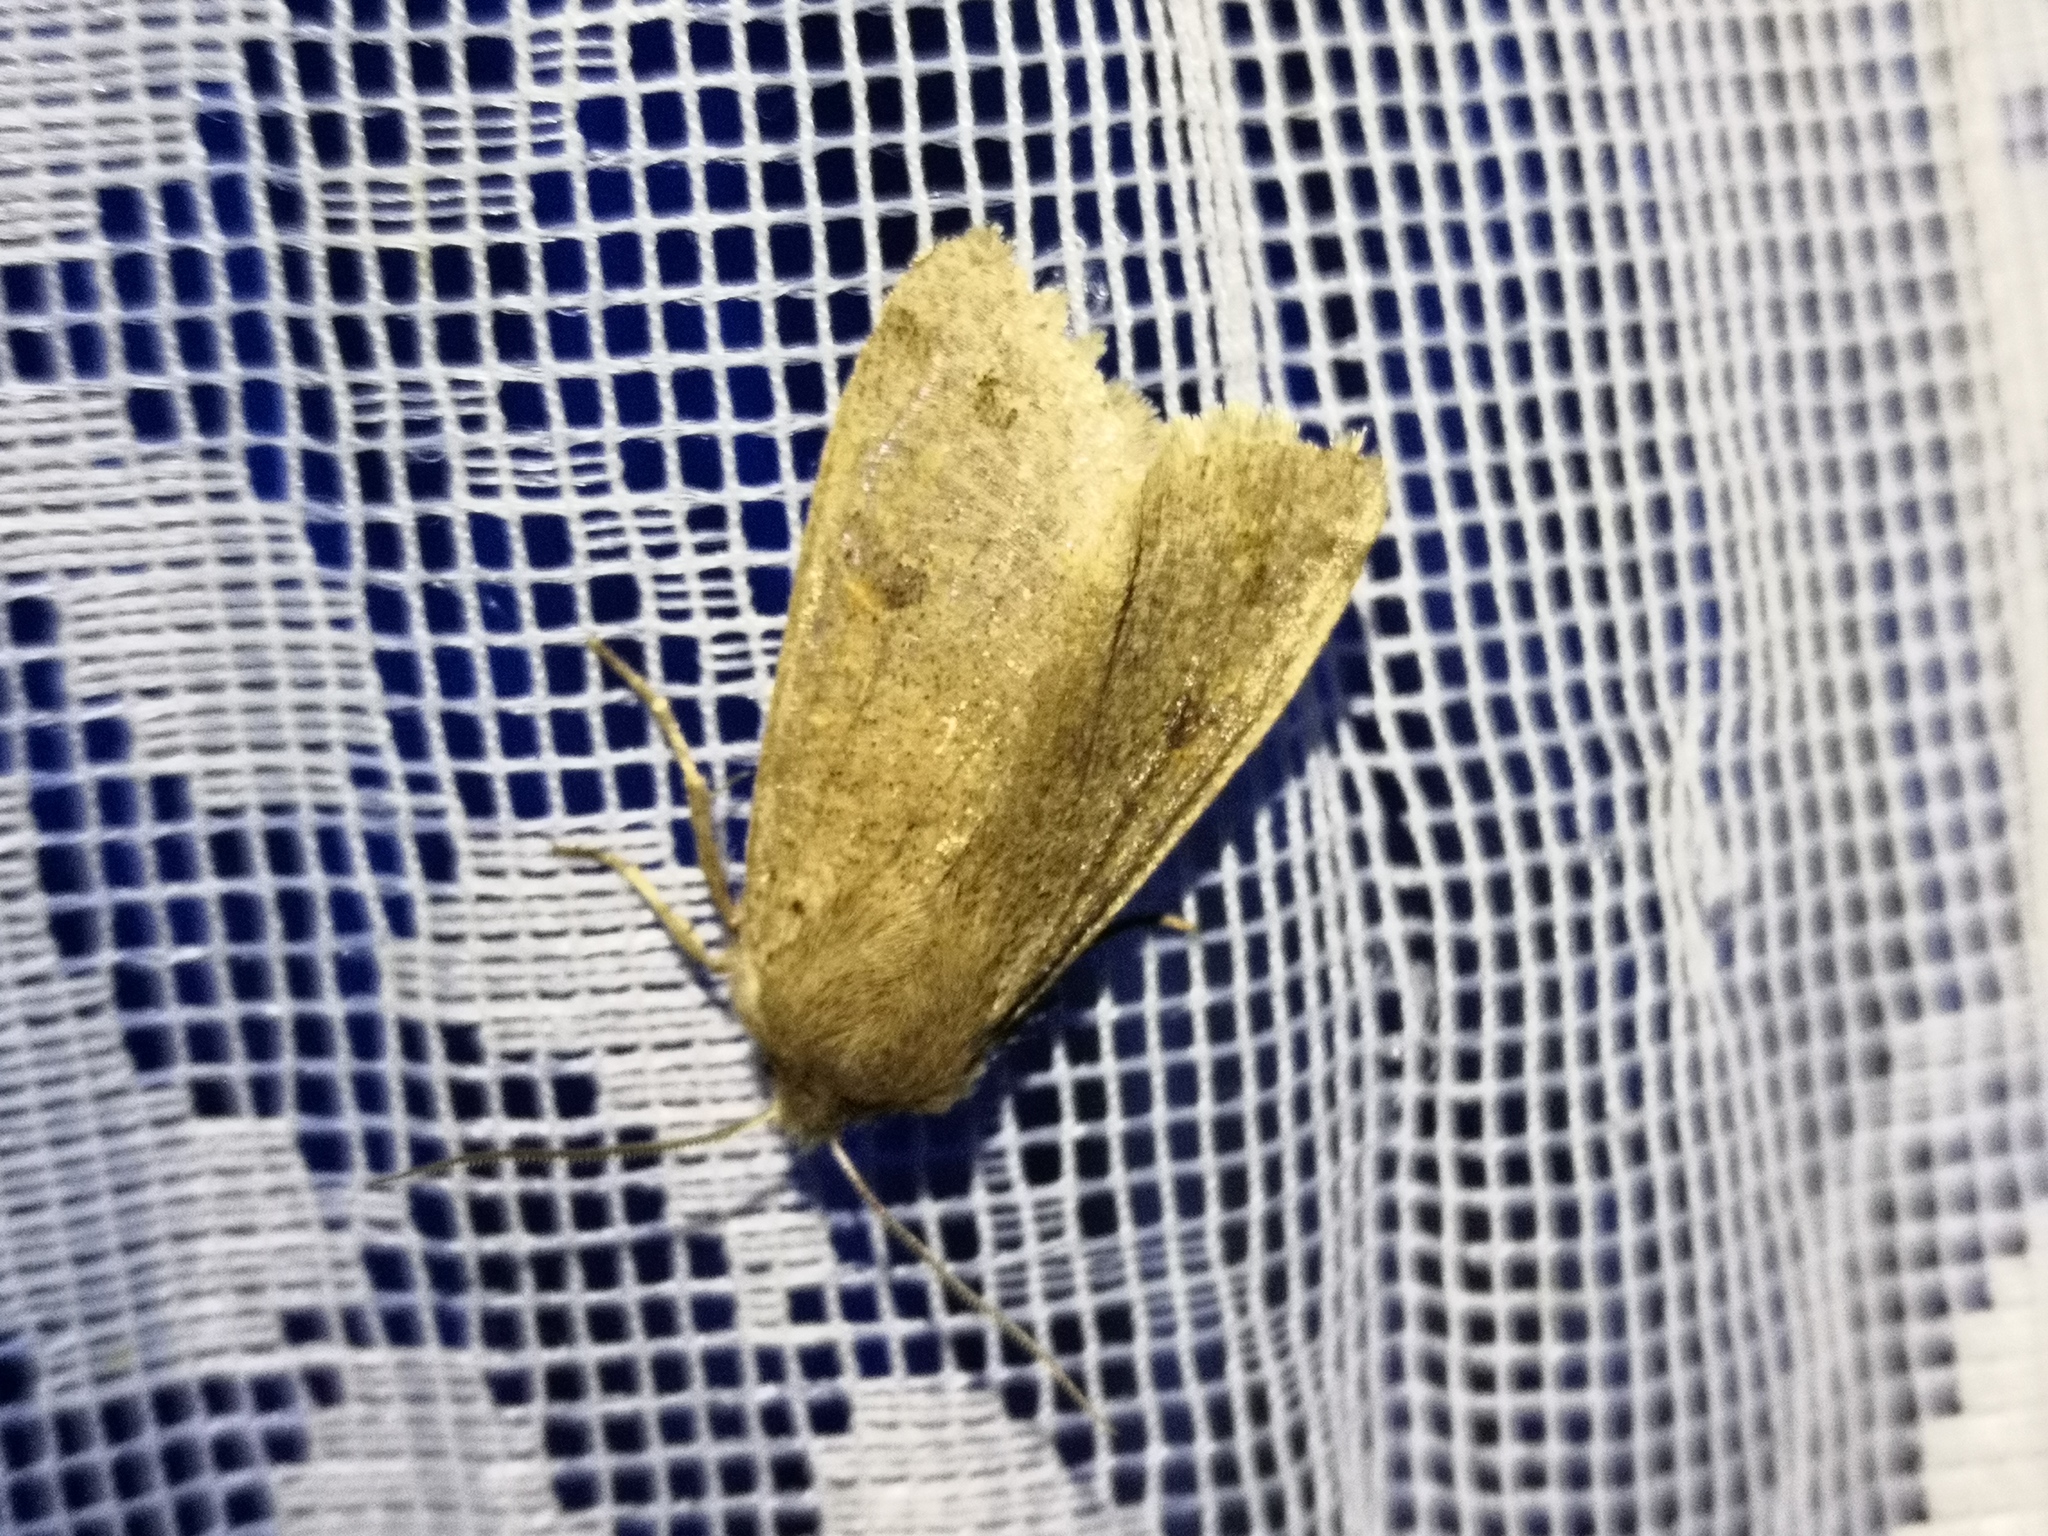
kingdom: Animalia
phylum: Arthropoda
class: Insecta
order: Lepidoptera
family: Noctuidae
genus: Anorthoa
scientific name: Anorthoa munda
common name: Twin-spotted quaker
